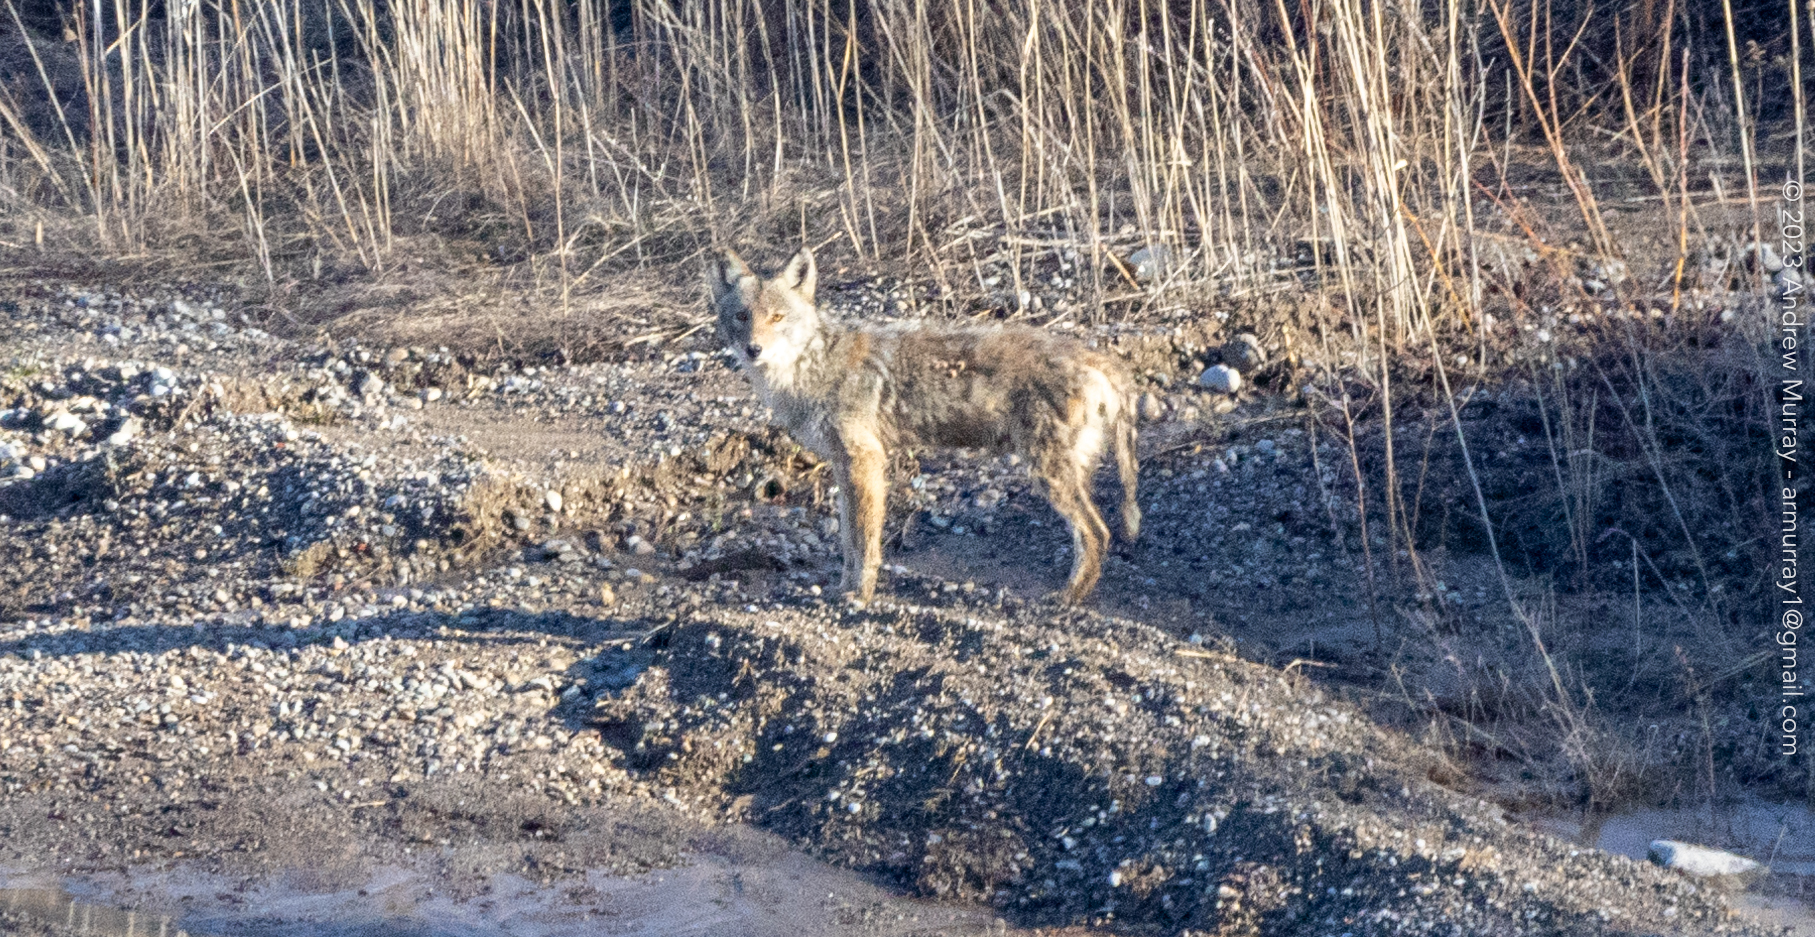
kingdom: Animalia
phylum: Chordata
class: Mammalia
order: Carnivora
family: Canidae
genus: Canis
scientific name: Canis latrans
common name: Coyote
